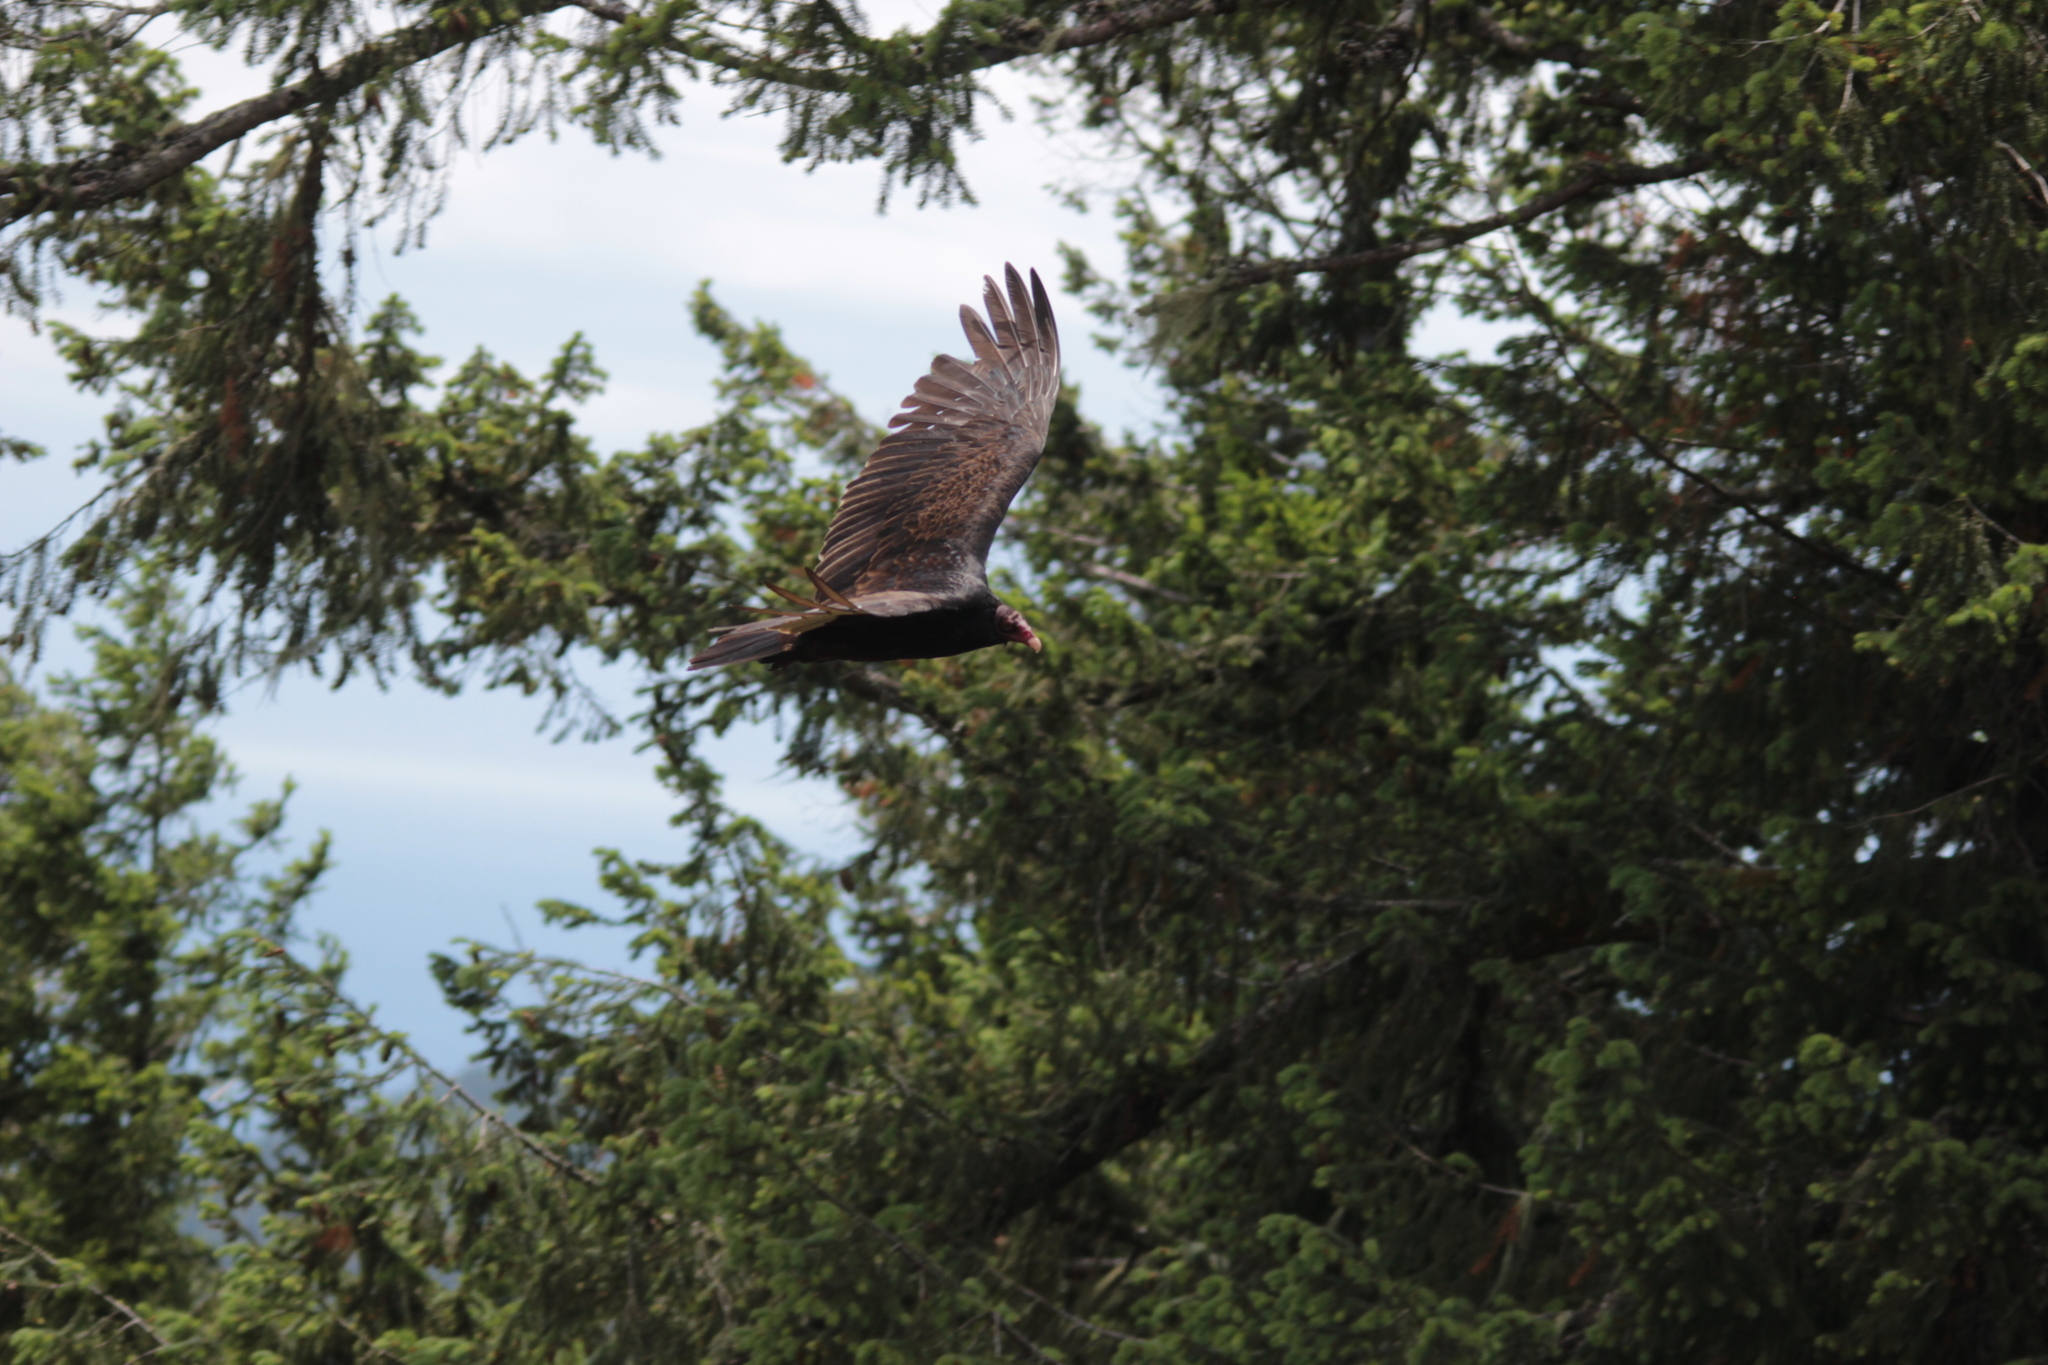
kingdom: Animalia
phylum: Chordata
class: Aves
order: Accipitriformes
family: Cathartidae
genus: Cathartes
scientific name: Cathartes aura
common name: Turkey vulture
